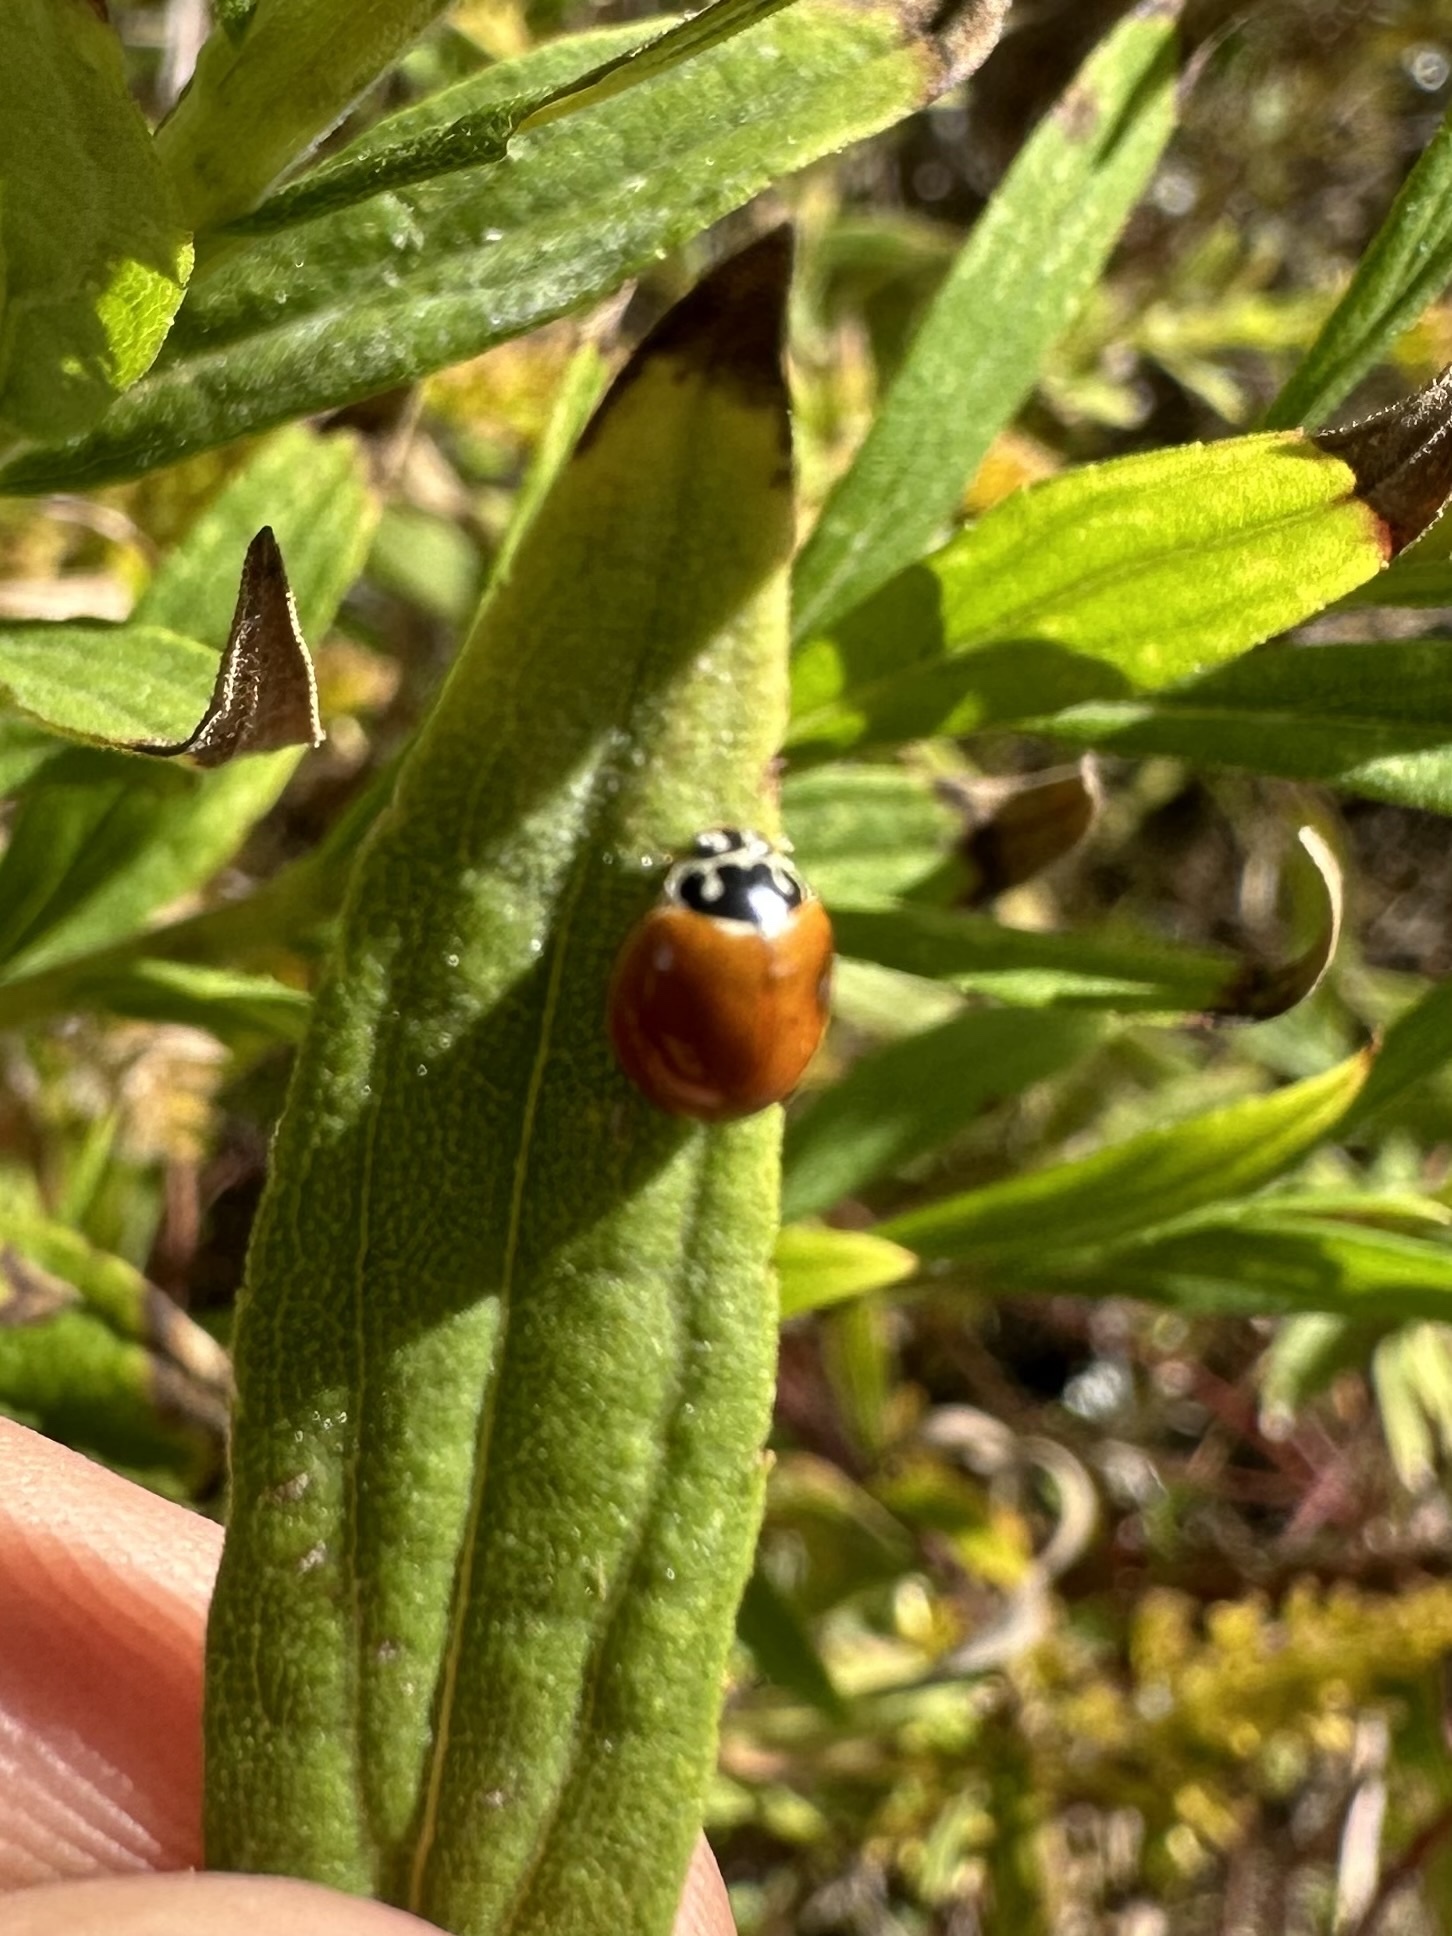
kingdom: Animalia
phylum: Arthropoda
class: Insecta
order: Coleoptera
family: Coccinellidae
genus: Cycloneda
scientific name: Cycloneda munda
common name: Polished lady beetle
